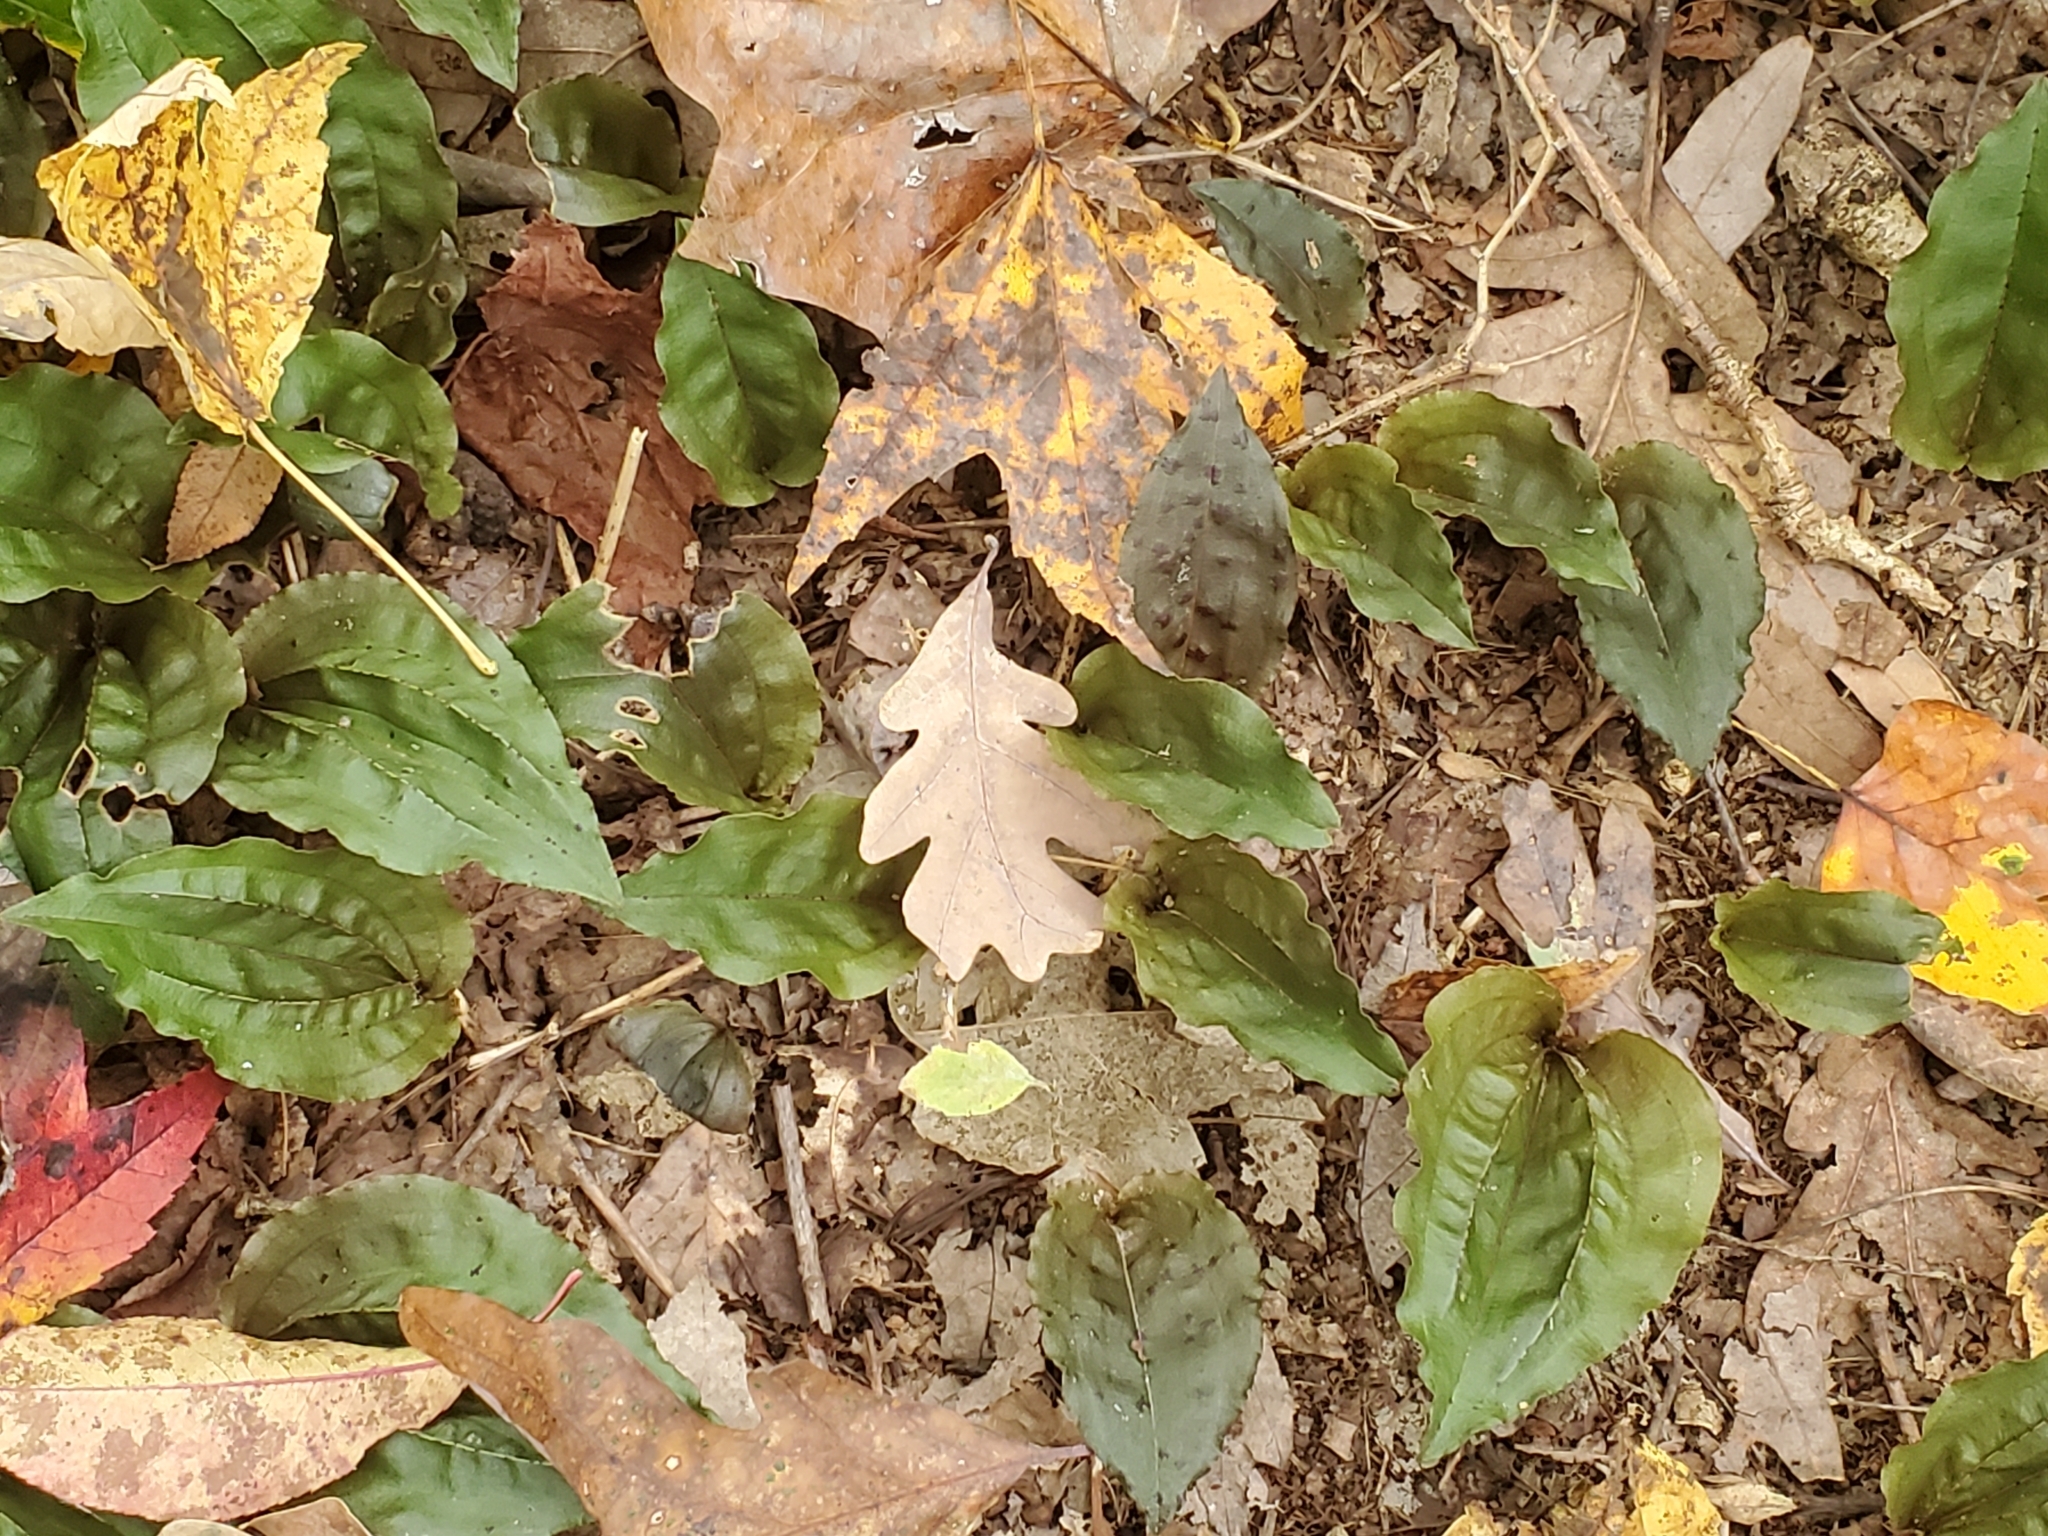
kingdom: Plantae
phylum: Tracheophyta
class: Liliopsida
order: Asparagales
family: Orchidaceae
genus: Tipularia
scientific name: Tipularia discolor
